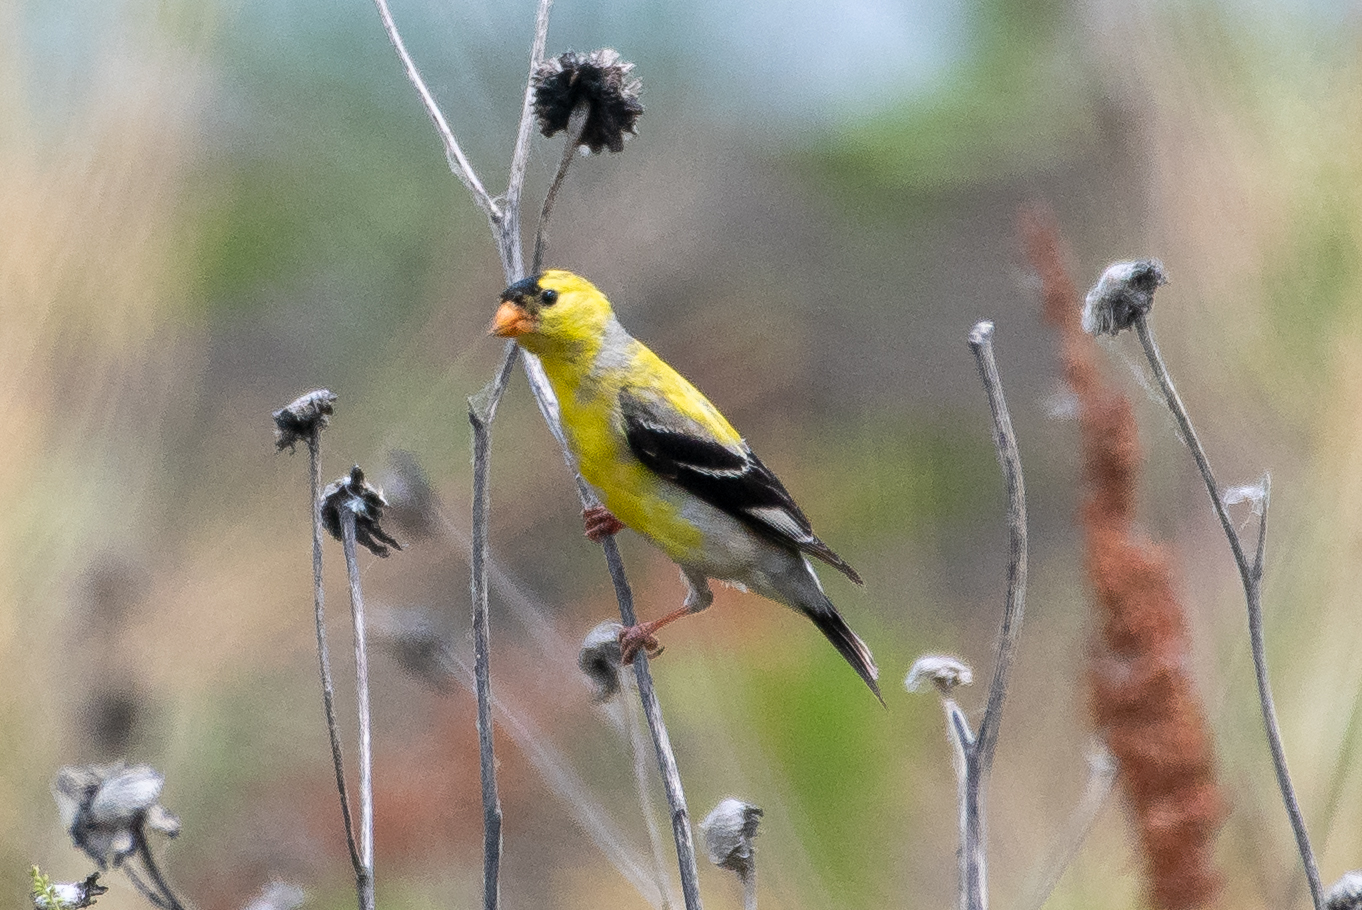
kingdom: Animalia
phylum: Chordata
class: Aves
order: Passeriformes
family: Fringillidae
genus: Spinus
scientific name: Spinus tristis
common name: American goldfinch
